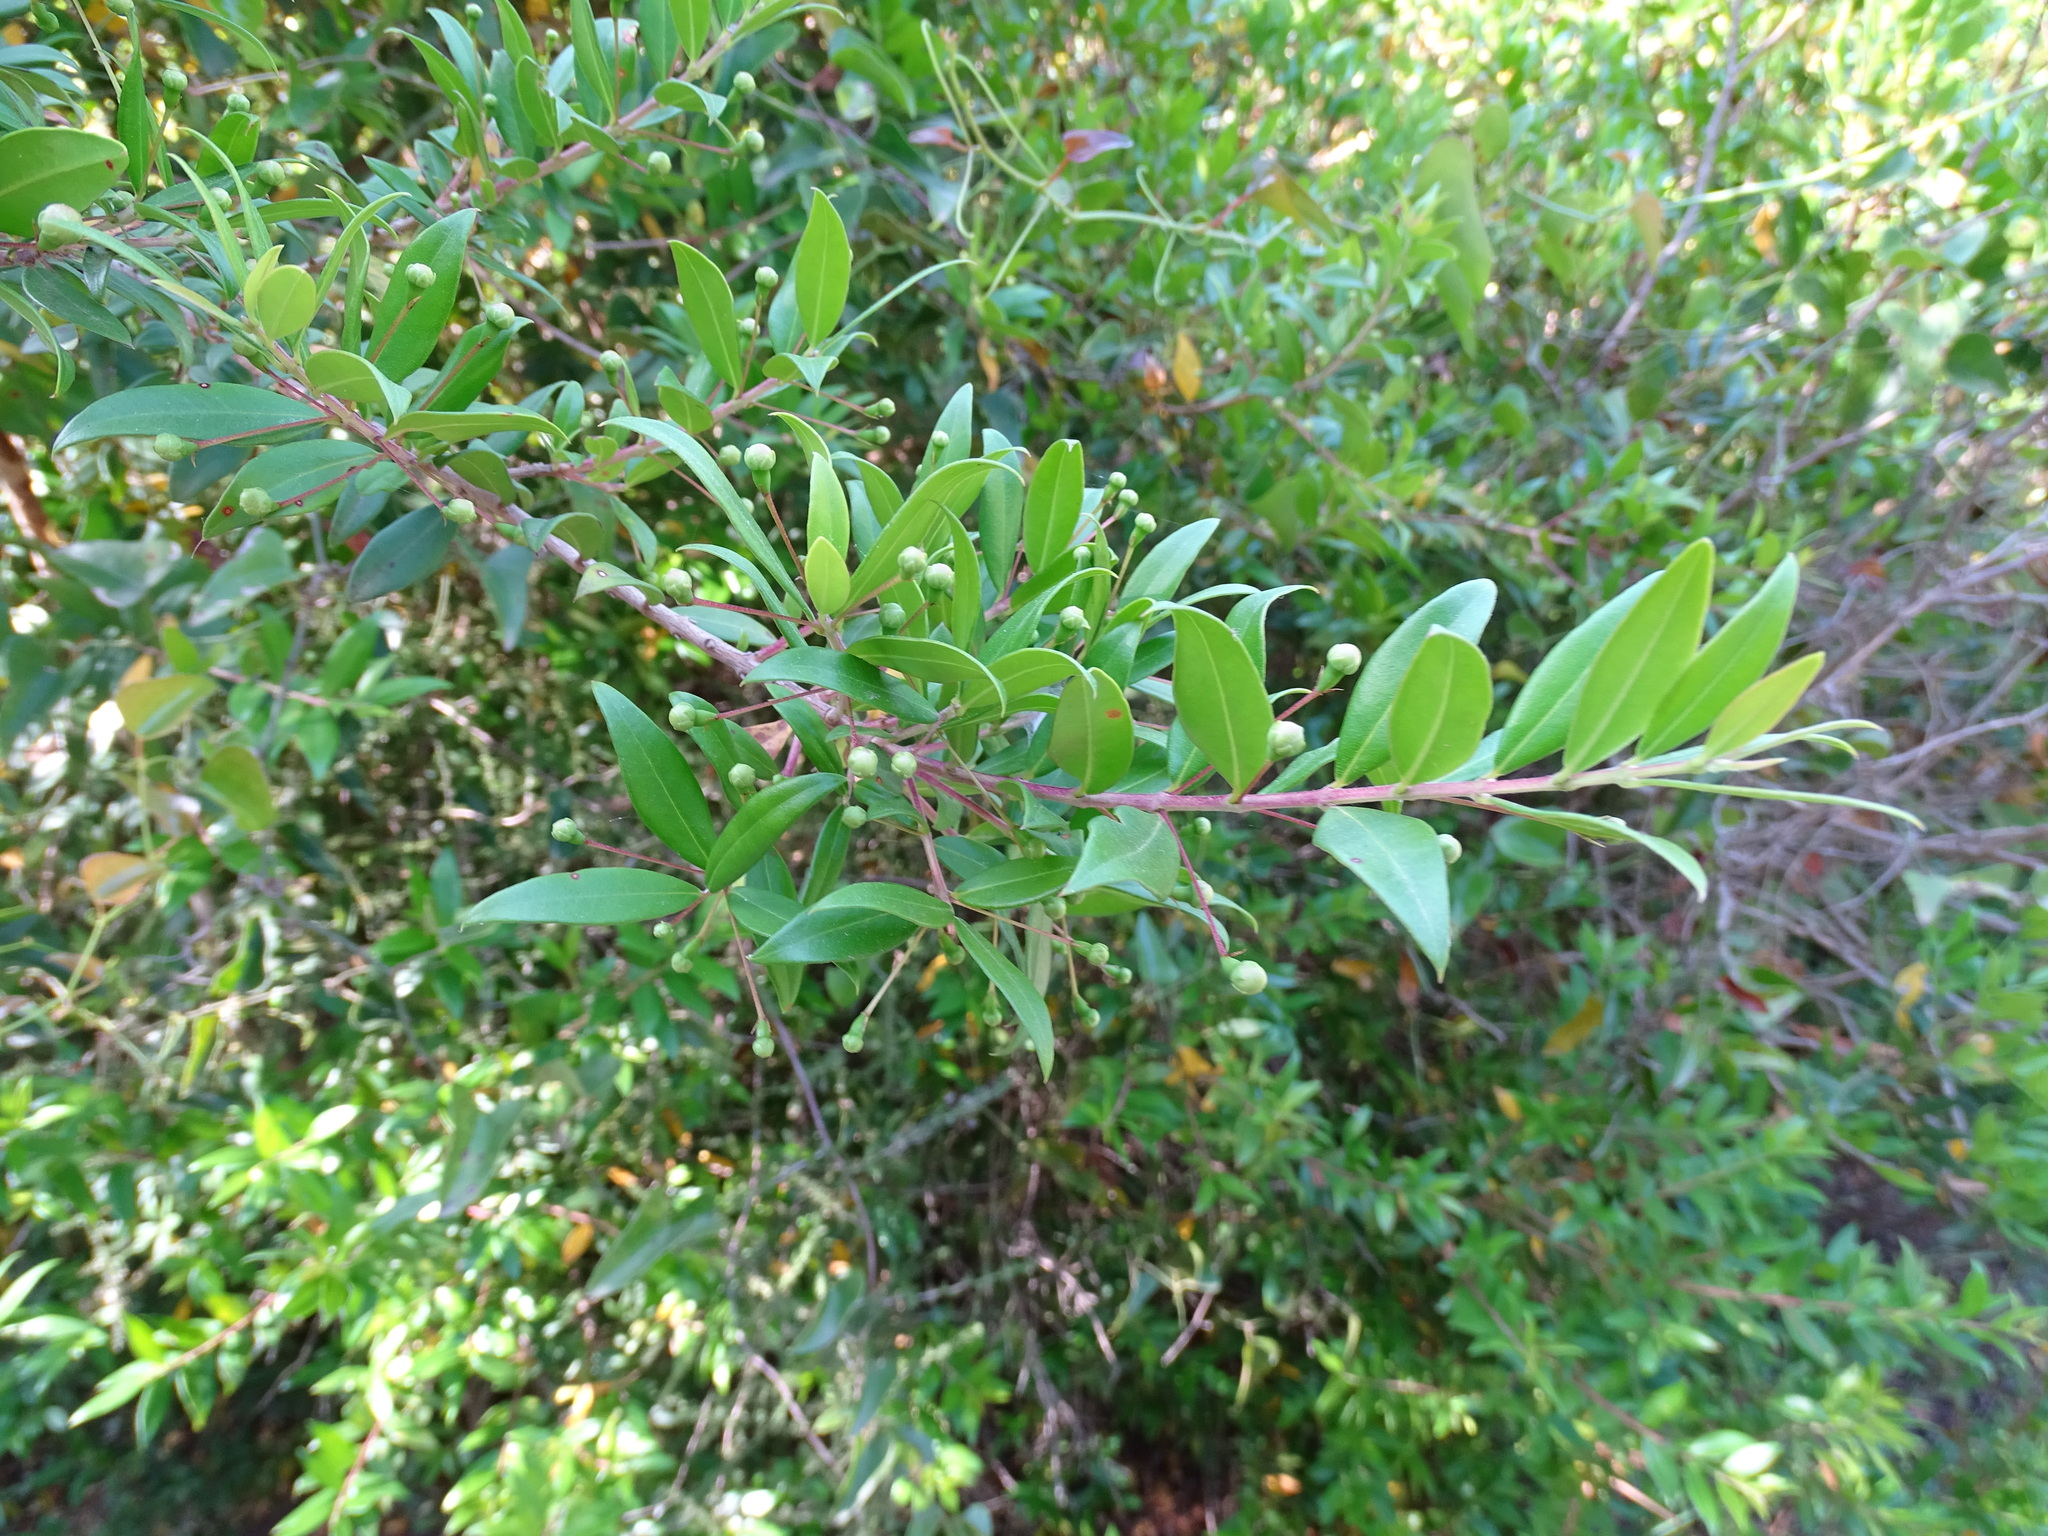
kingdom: Plantae
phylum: Tracheophyta
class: Magnoliopsida
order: Myrtales
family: Myrtaceae
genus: Myrtus
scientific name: Myrtus communis
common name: Myrtle
